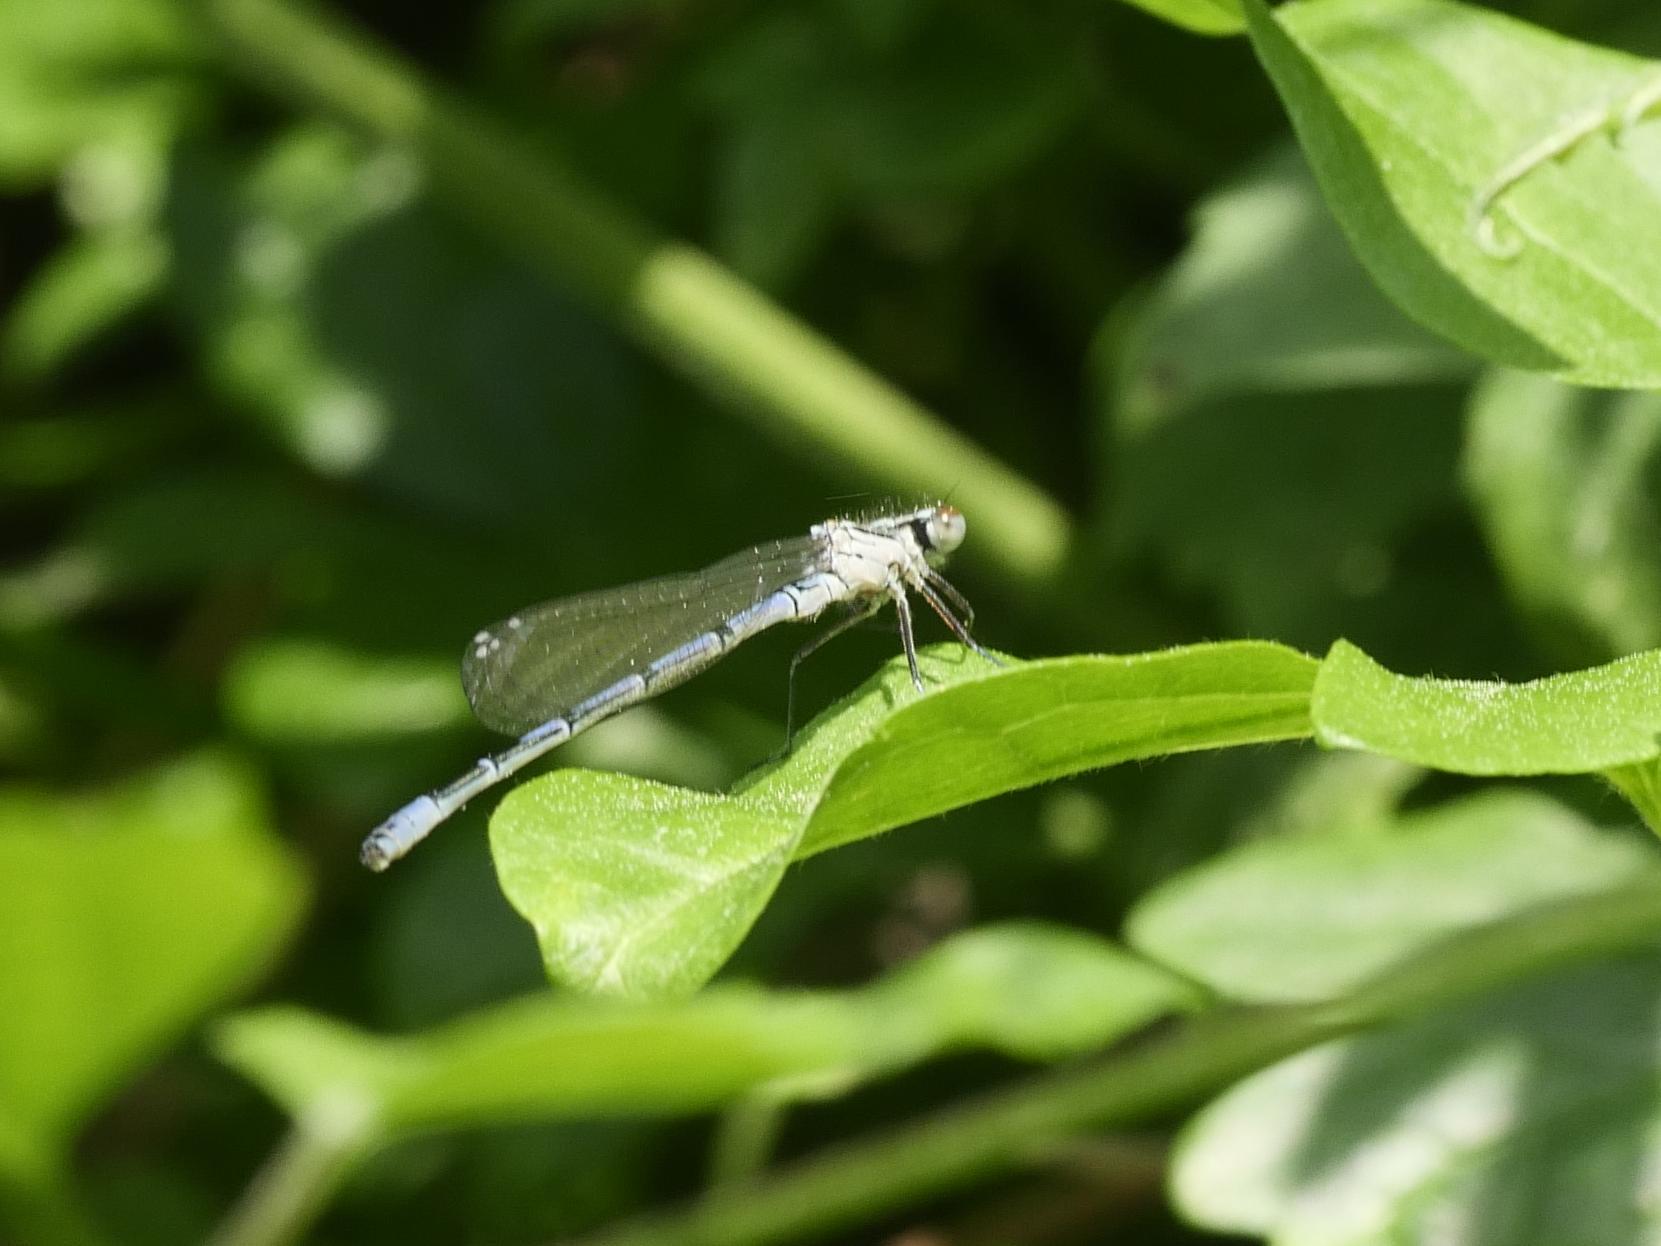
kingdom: Animalia
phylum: Arthropoda
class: Insecta
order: Odonata
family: Coenagrionidae
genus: Coenagrion
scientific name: Coenagrion puella
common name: Azure damselfly
